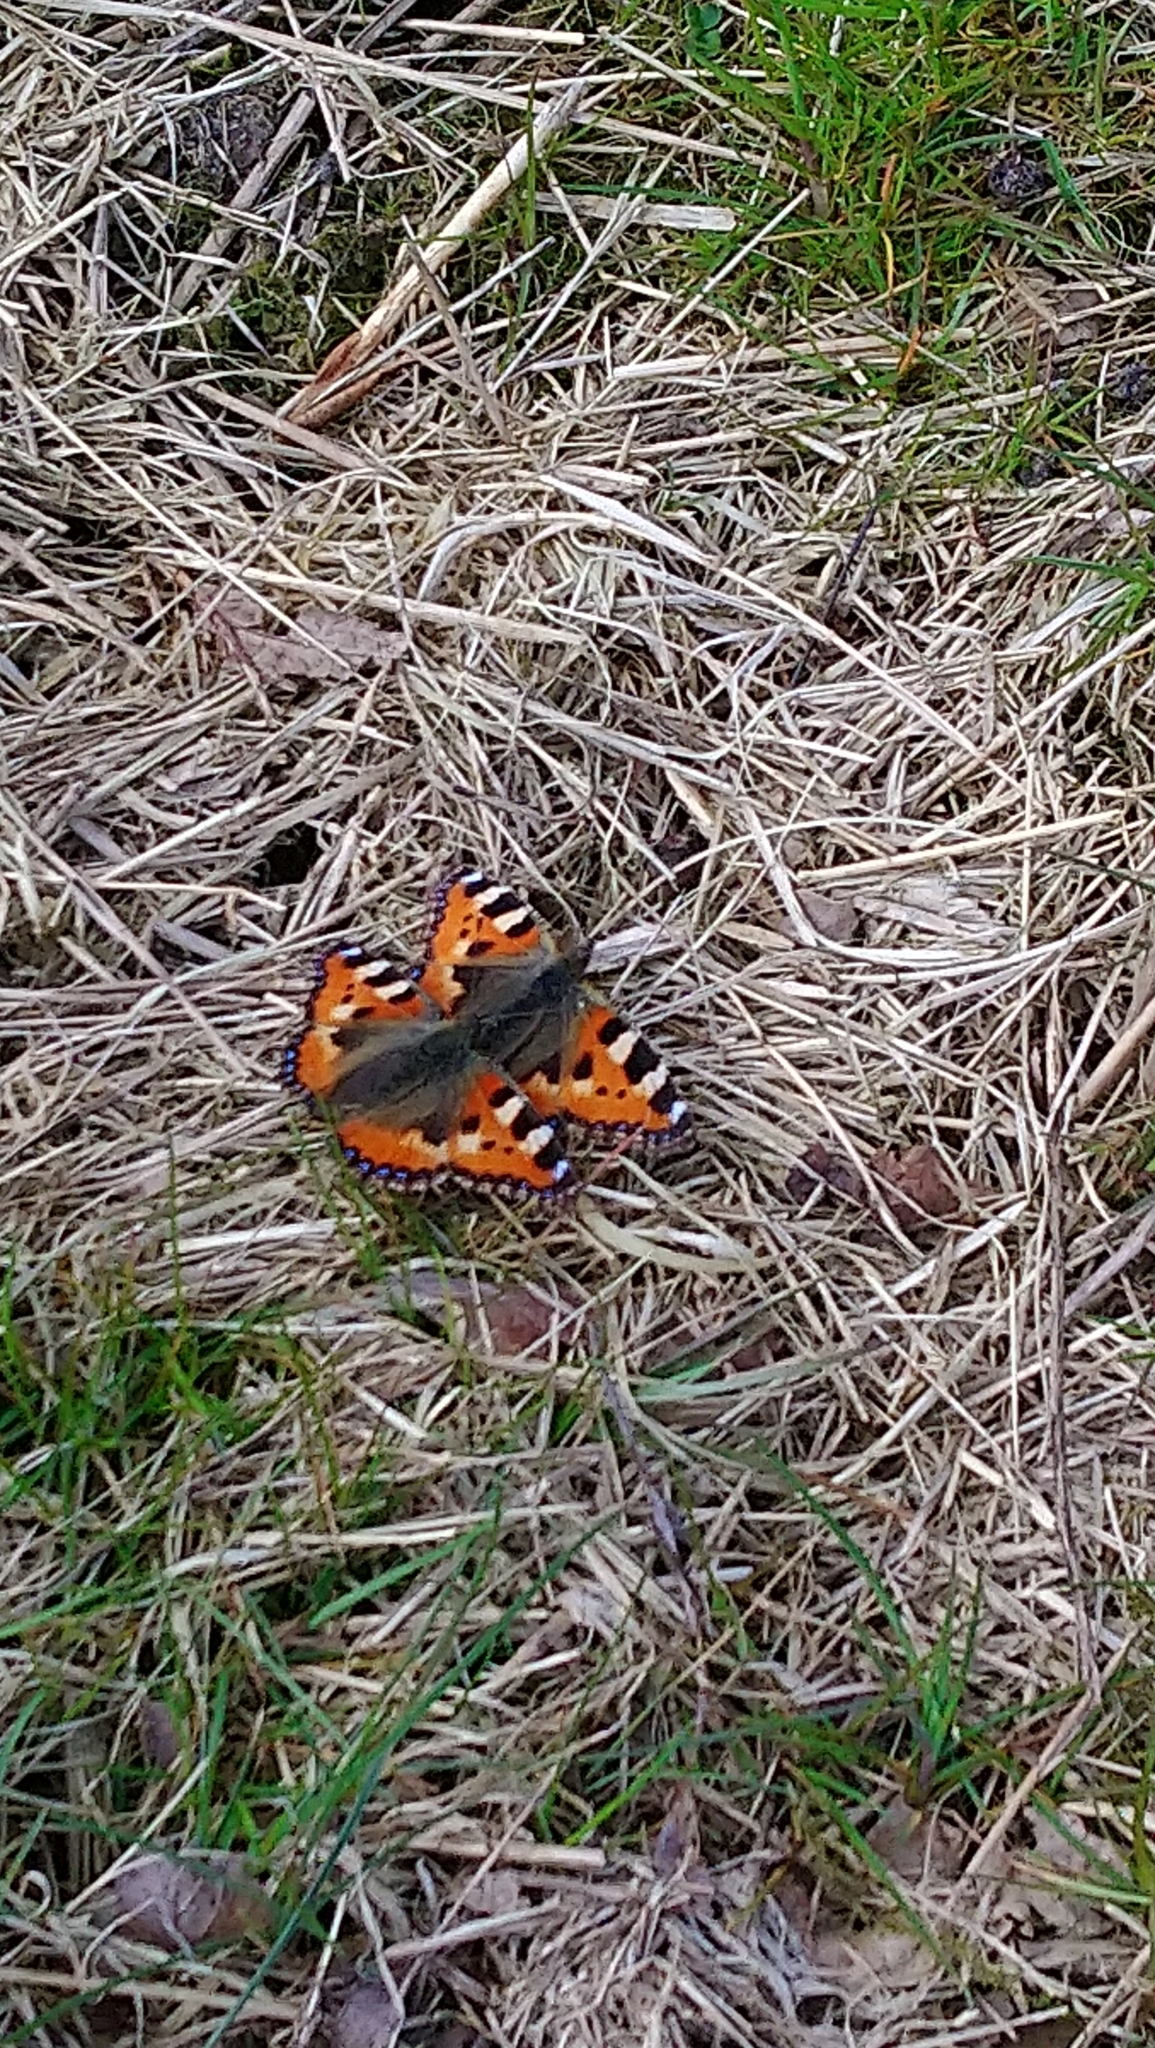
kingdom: Animalia
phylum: Arthropoda
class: Insecta
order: Lepidoptera
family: Nymphalidae
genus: Aglais
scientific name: Aglais urticae
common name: Small tortoiseshell
